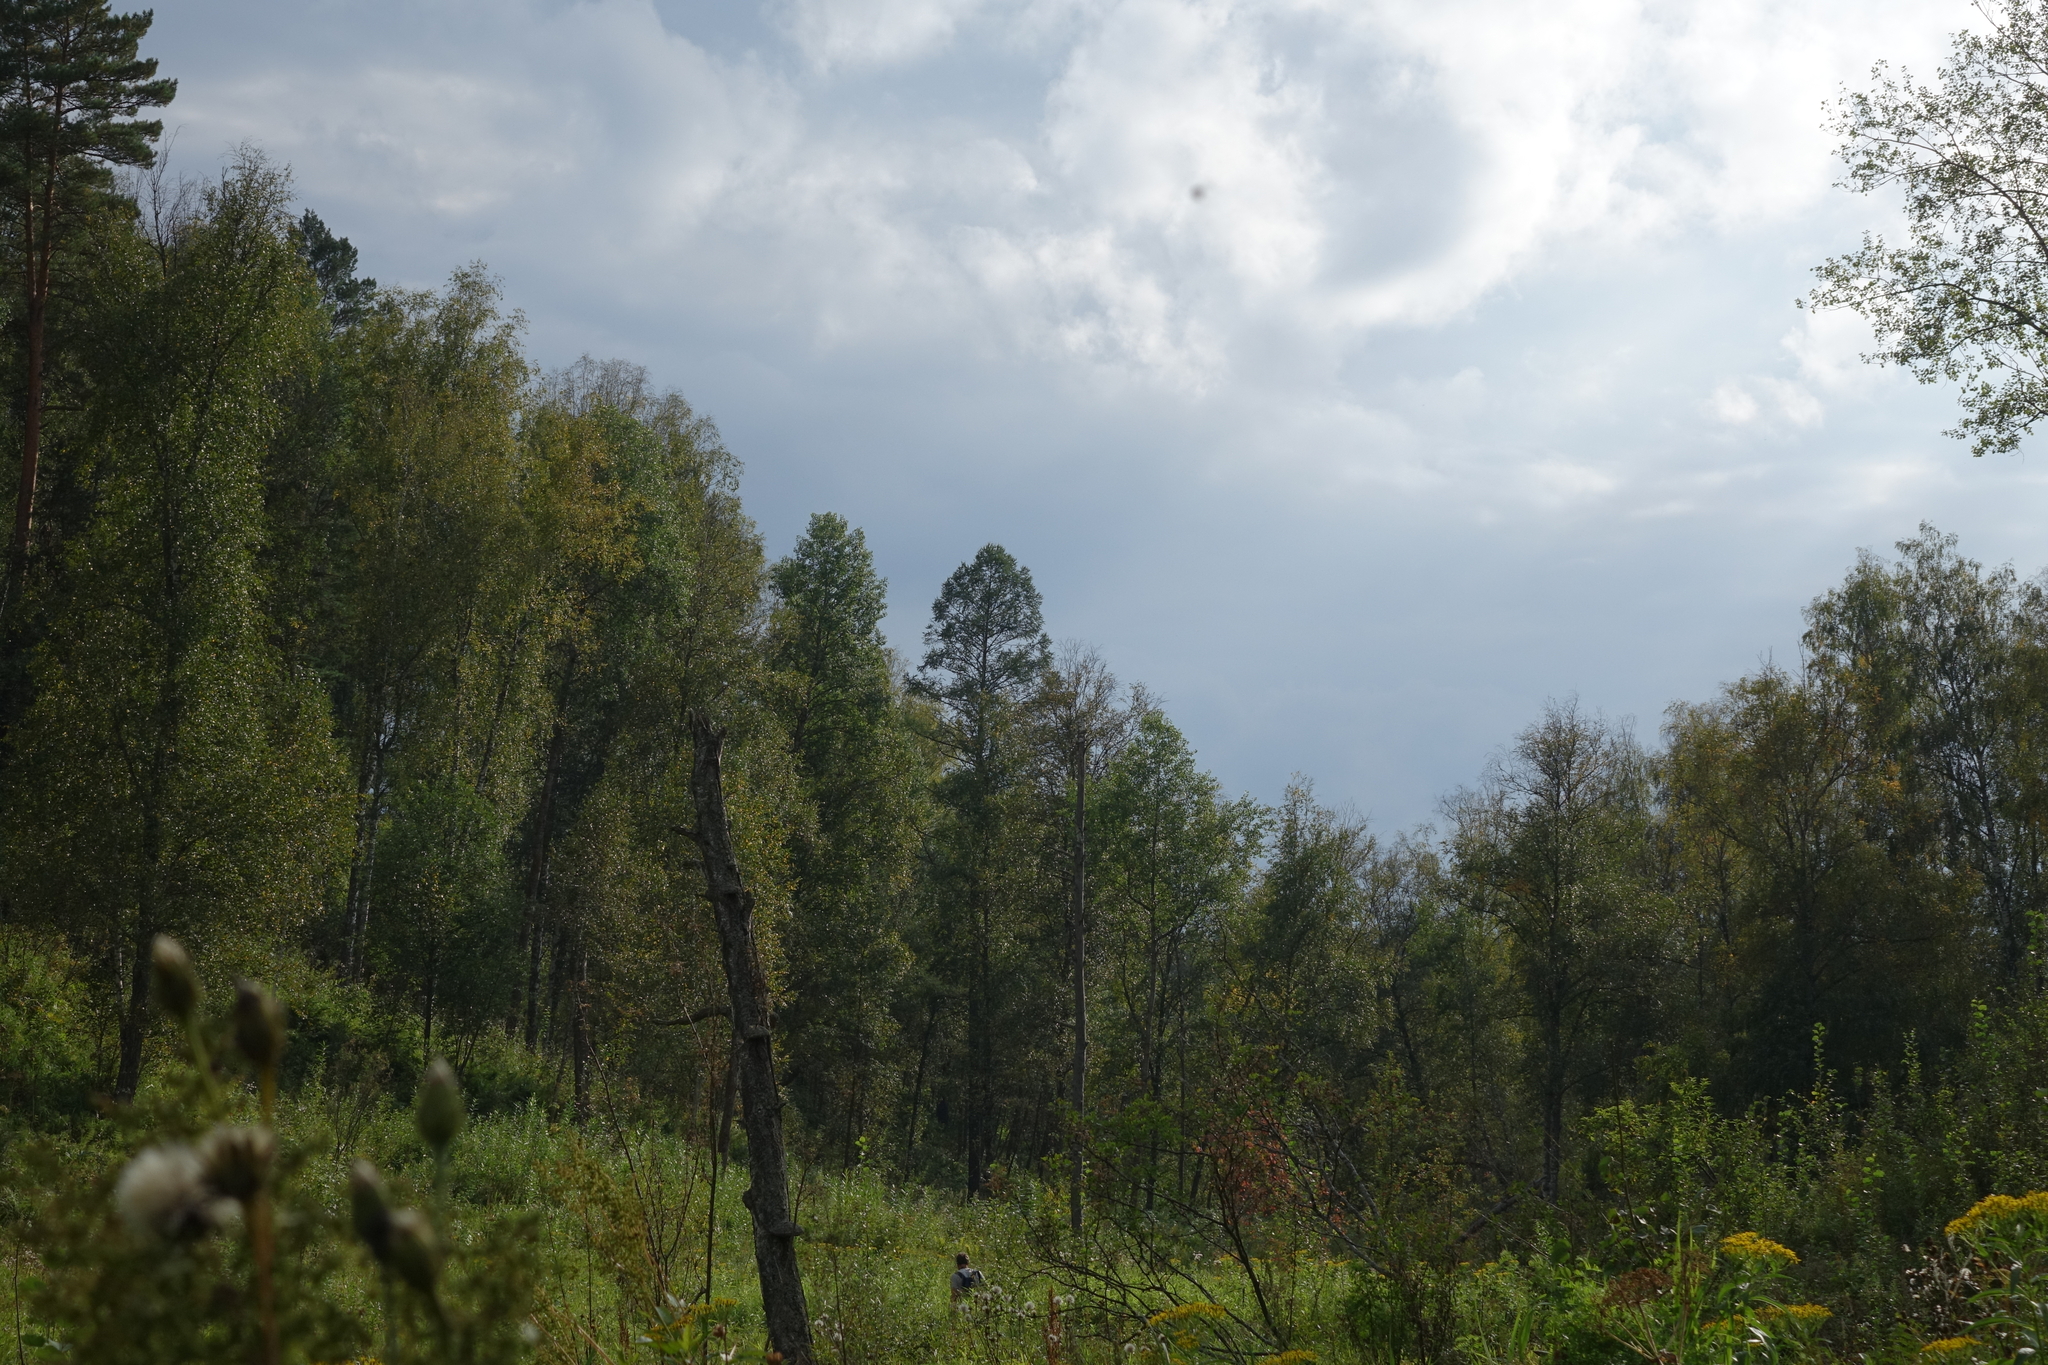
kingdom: Plantae
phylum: Tracheophyta
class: Pinopsida
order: Pinales
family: Pinaceae
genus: Larix
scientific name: Larix sibirica
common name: Siberian larch
